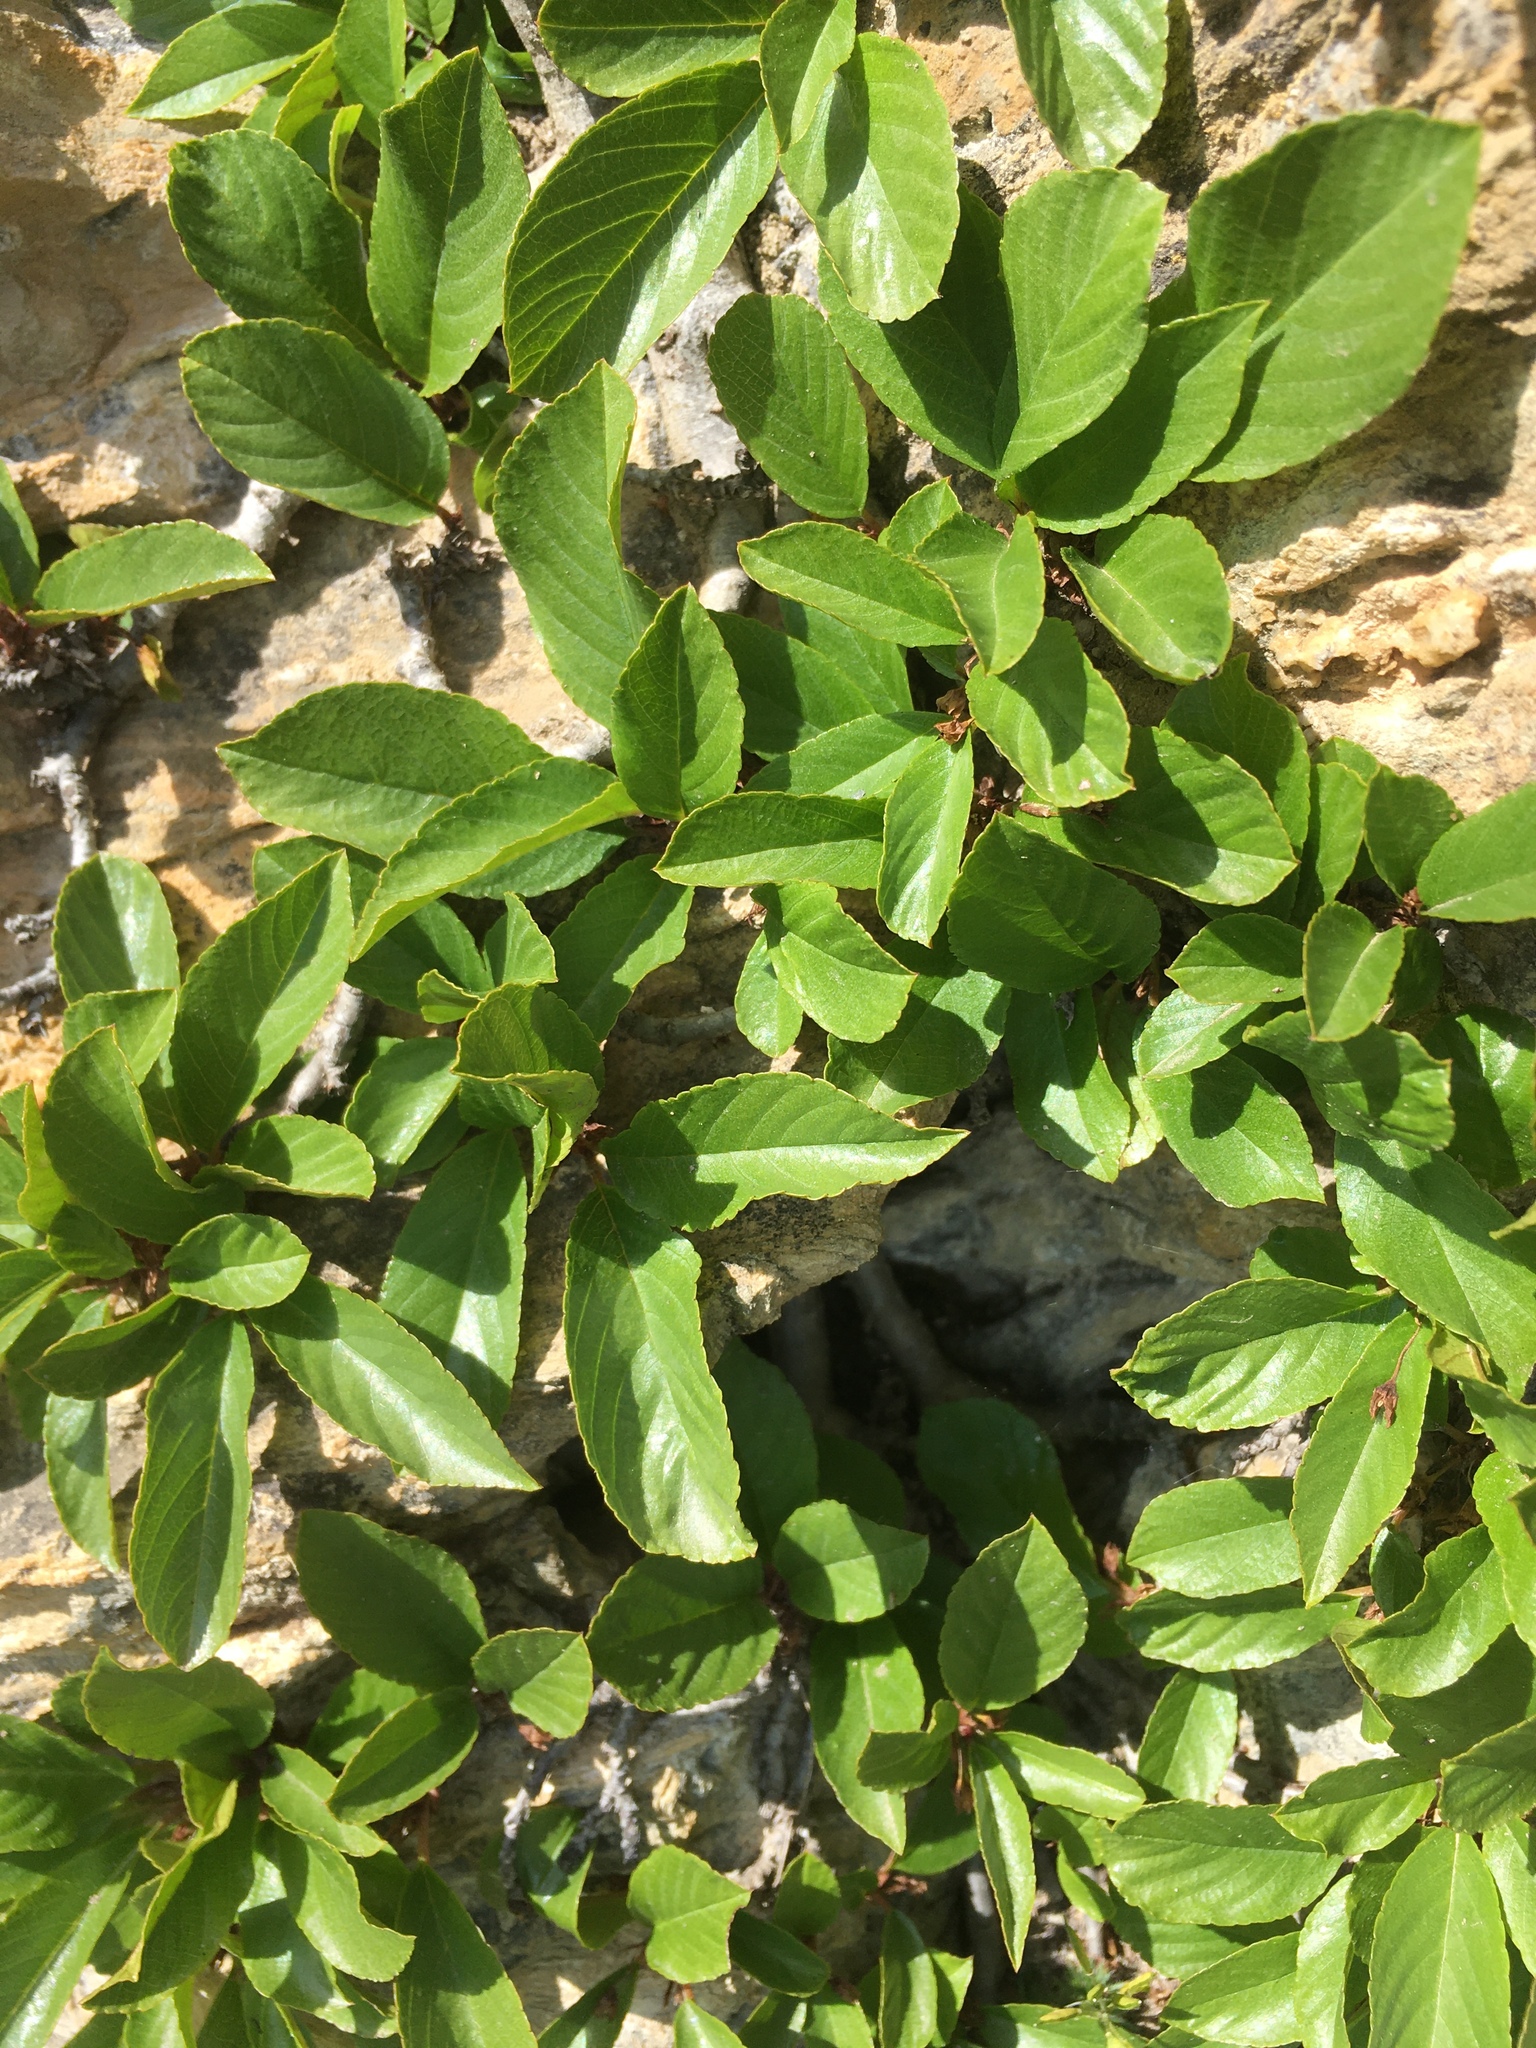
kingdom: Plantae
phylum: Tracheophyta
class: Magnoliopsida
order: Rosales
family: Rhamnaceae
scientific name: Rhamnaceae
